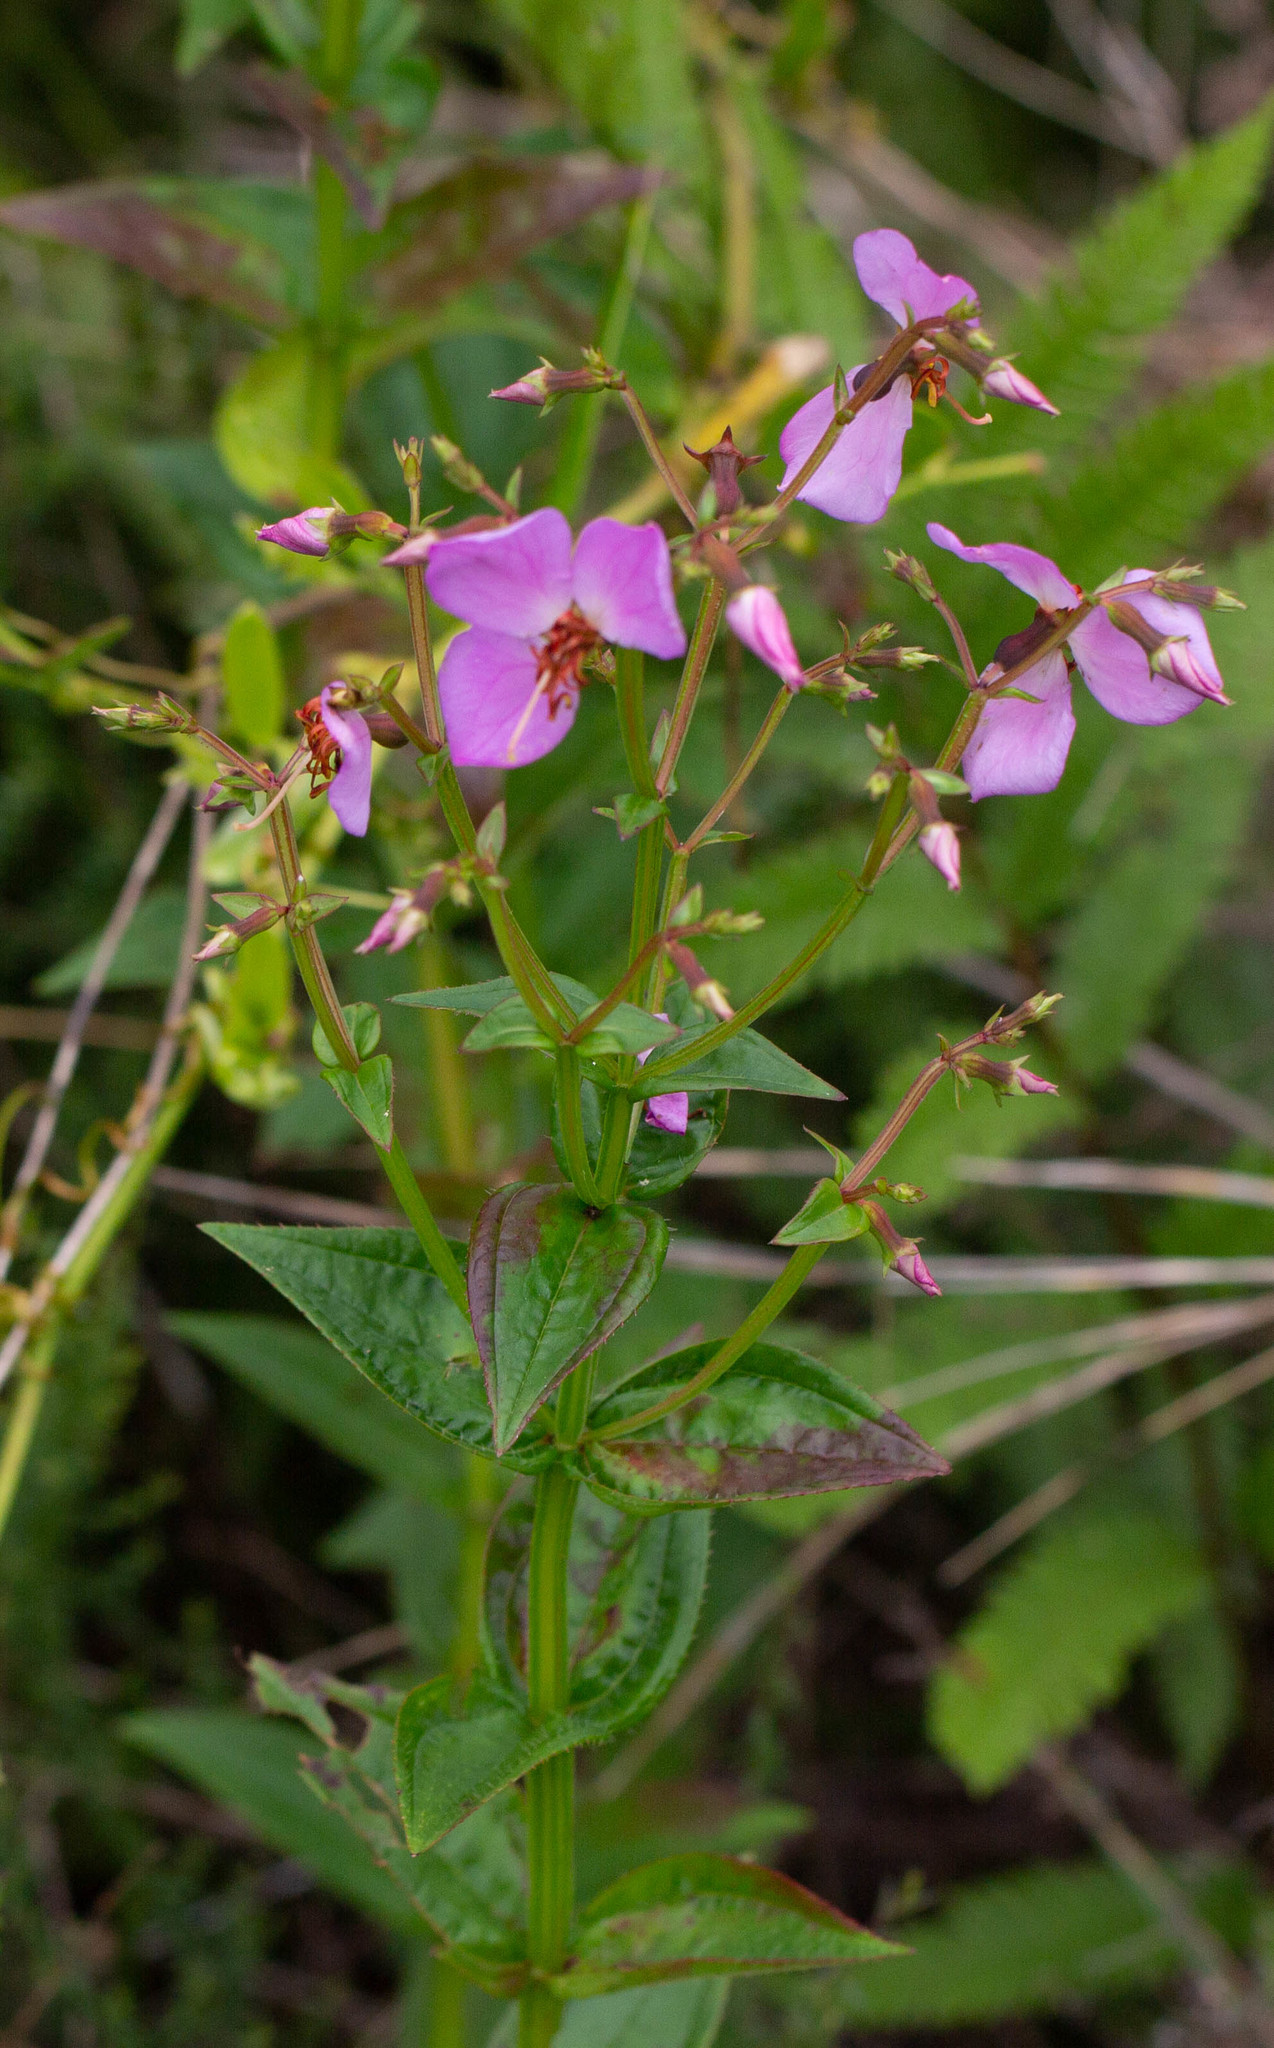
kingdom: Plantae
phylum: Tracheophyta
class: Magnoliopsida
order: Myrtales
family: Melastomataceae
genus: Rhexia
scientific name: Rhexia virginica
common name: Common meadow beauty
